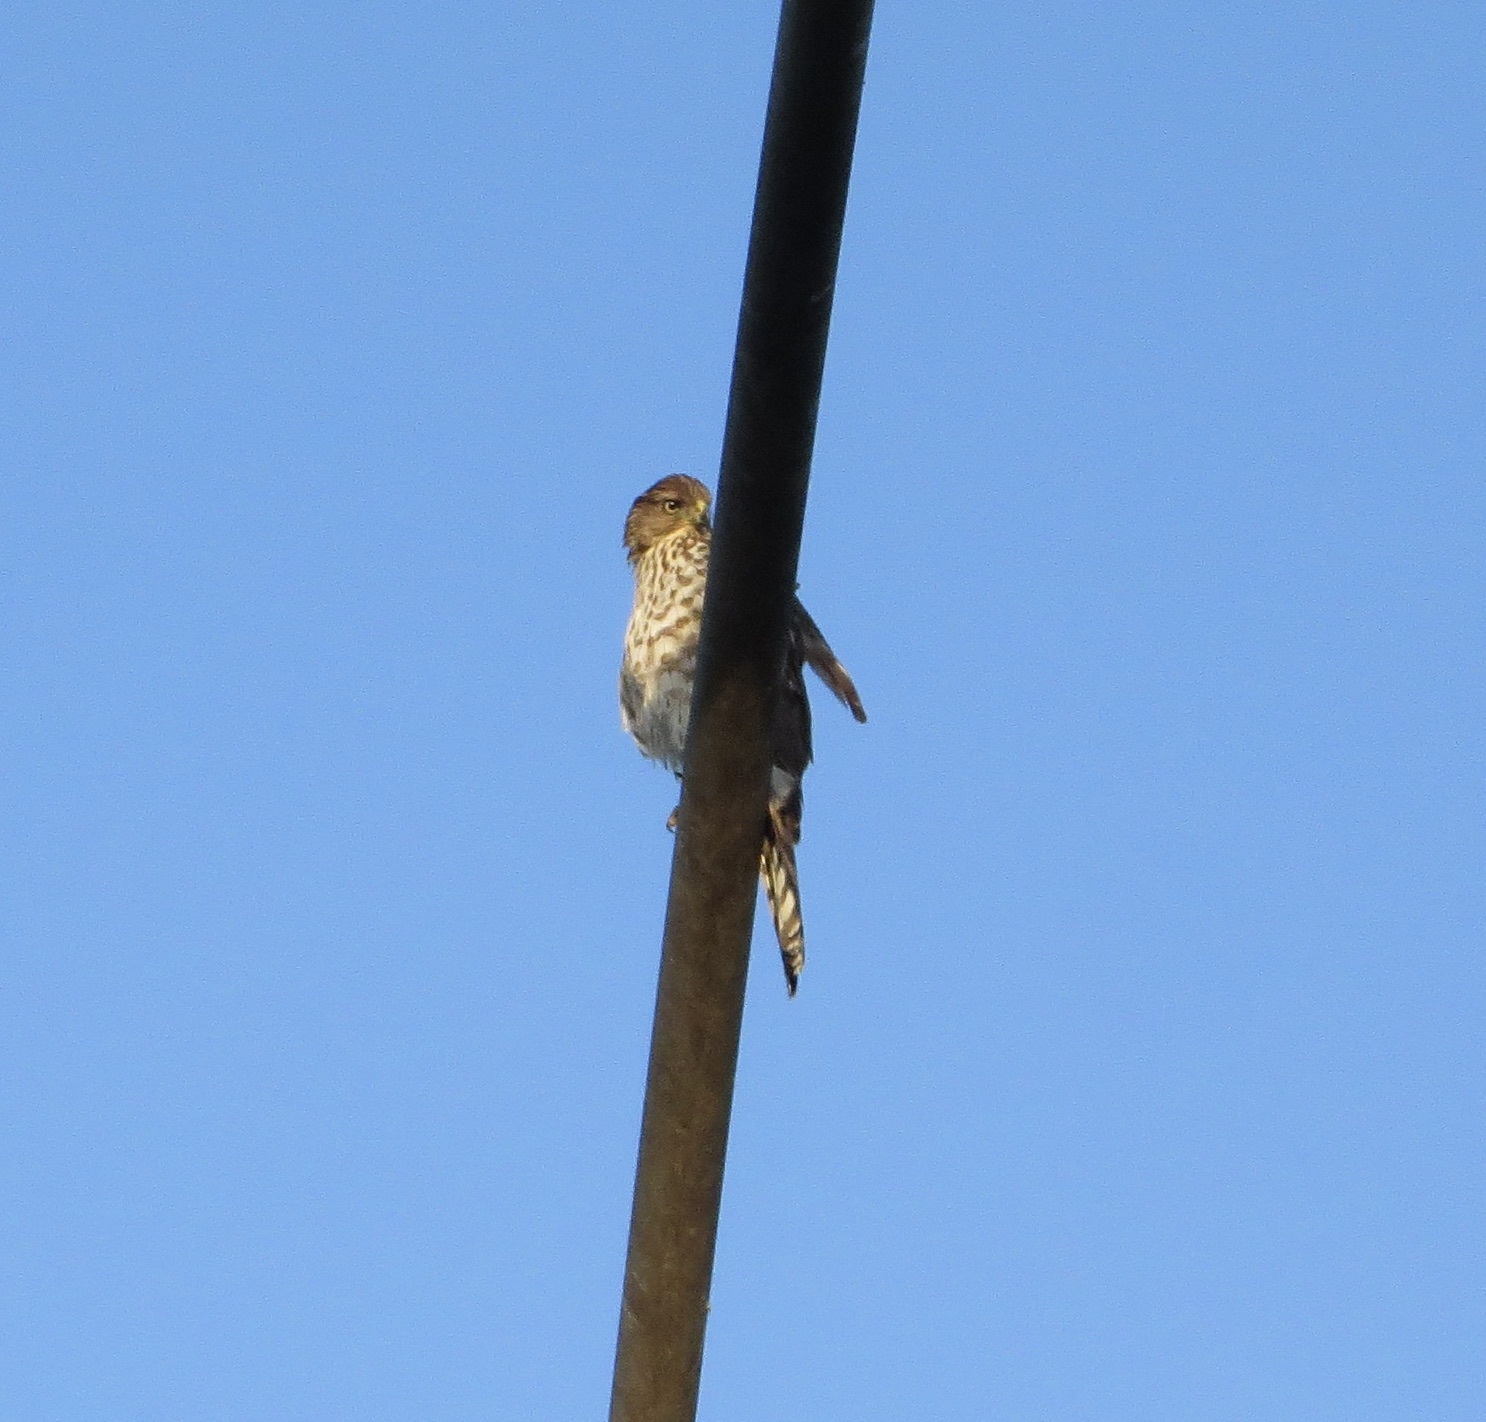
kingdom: Animalia
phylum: Chordata
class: Aves
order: Accipitriformes
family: Accipitridae
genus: Accipiter
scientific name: Accipiter cooperii
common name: Cooper's hawk
